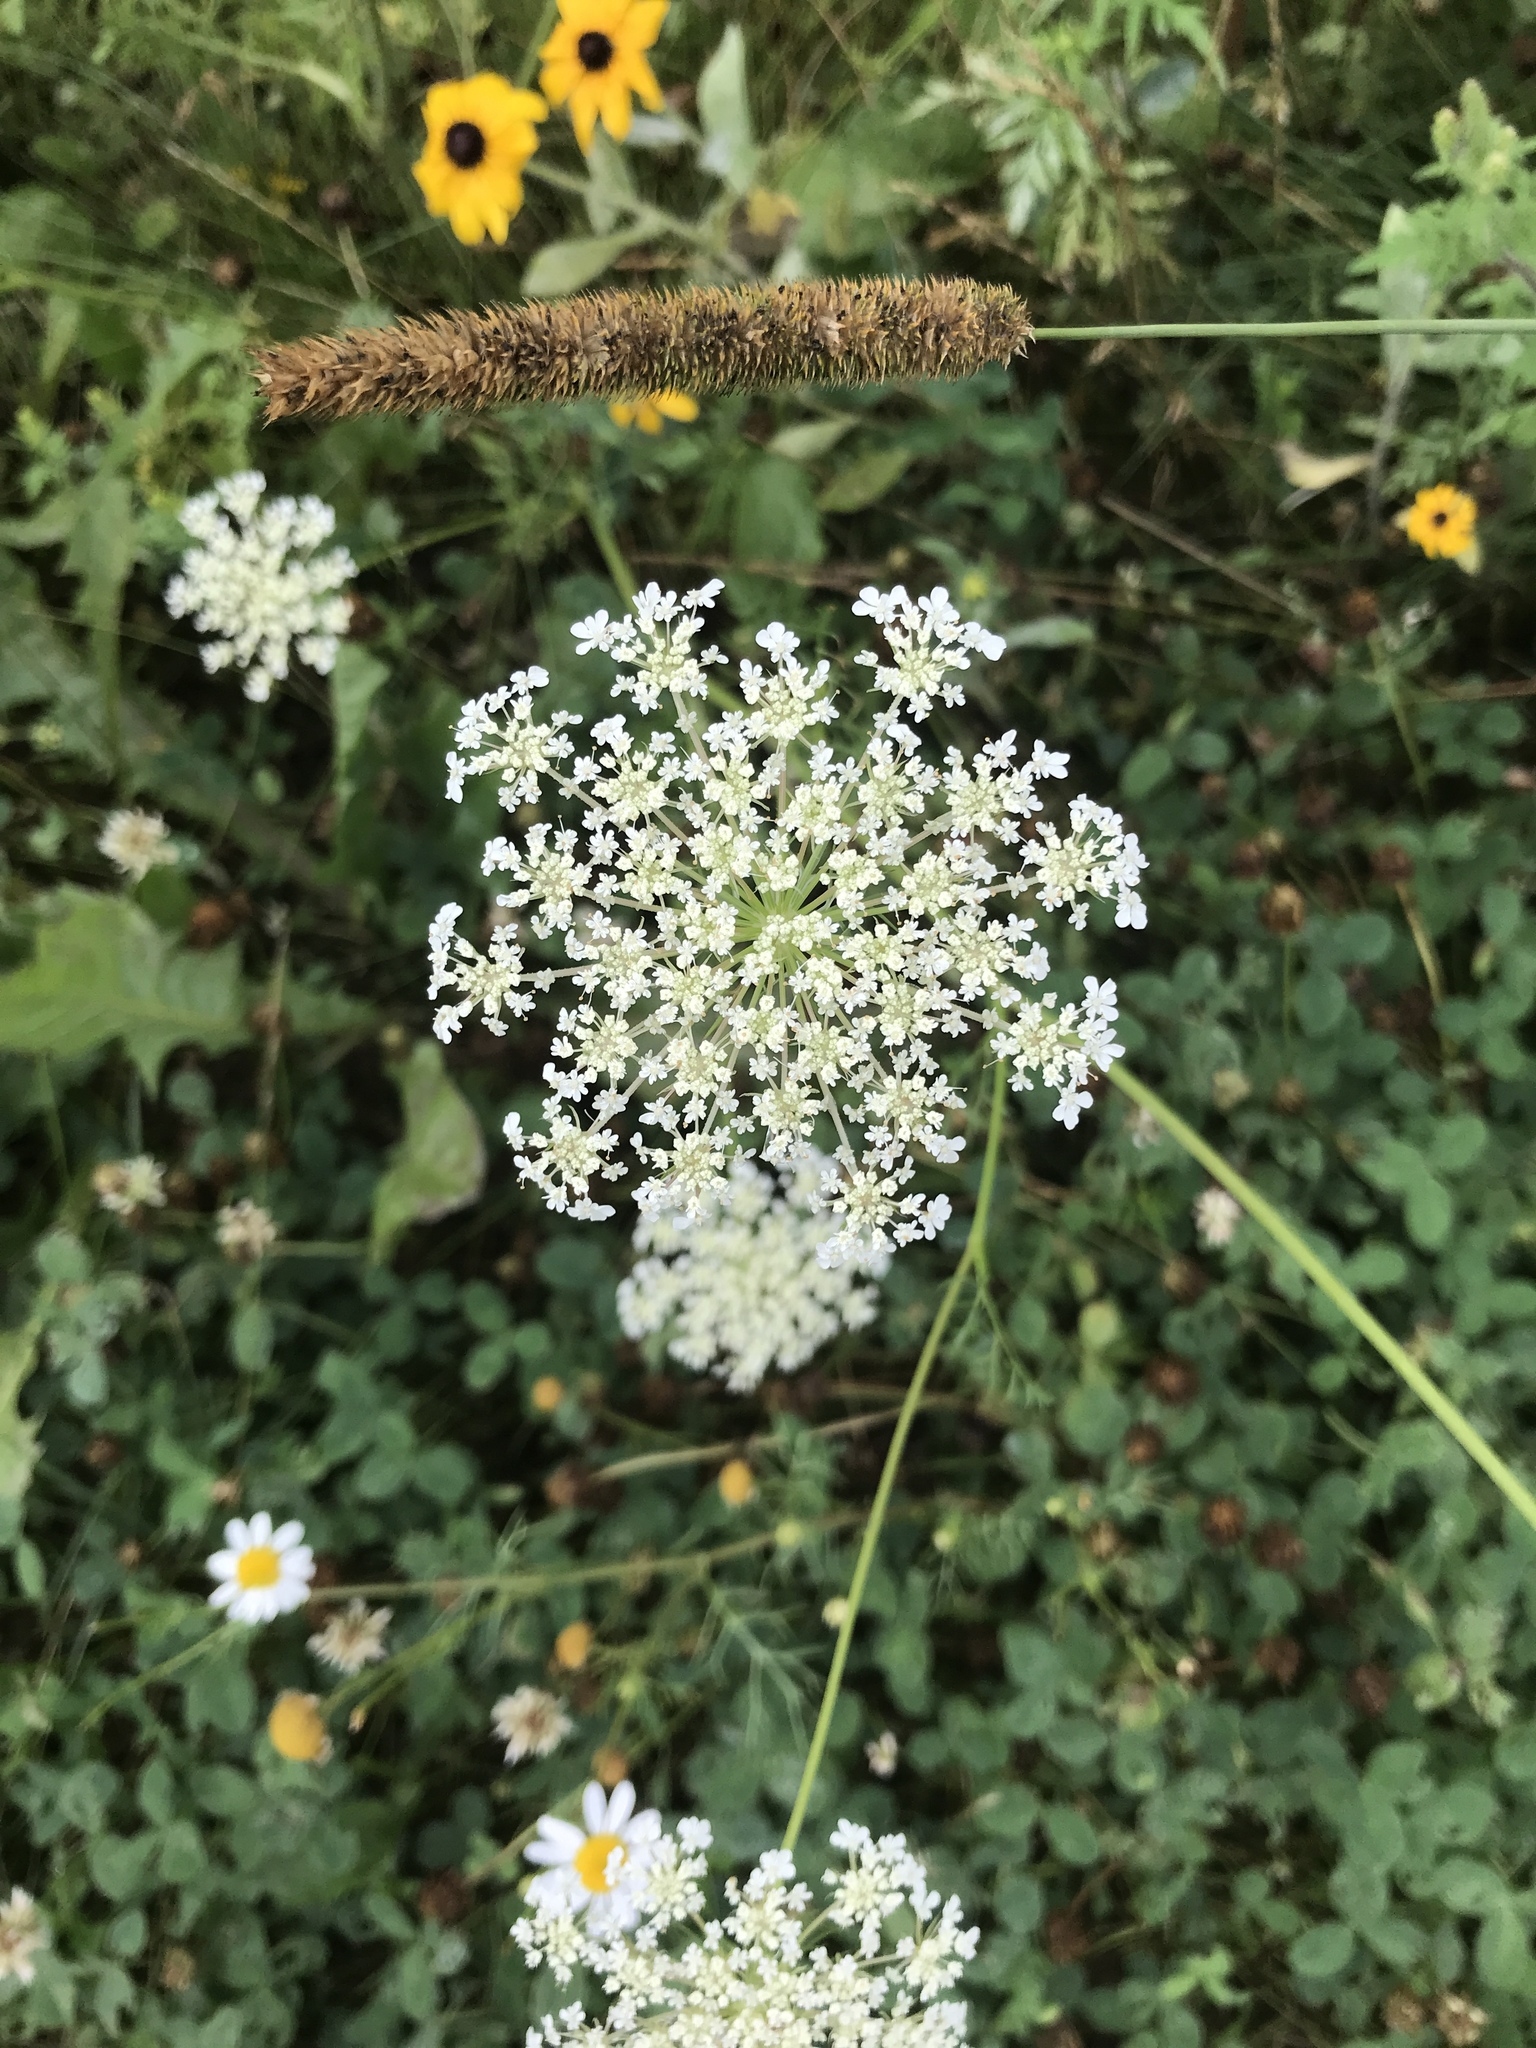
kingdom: Plantae
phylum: Tracheophyta
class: Magnoliopsida
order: Apiales
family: Apiaceae
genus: Daucus
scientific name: Daucus carota
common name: Wild carrot
